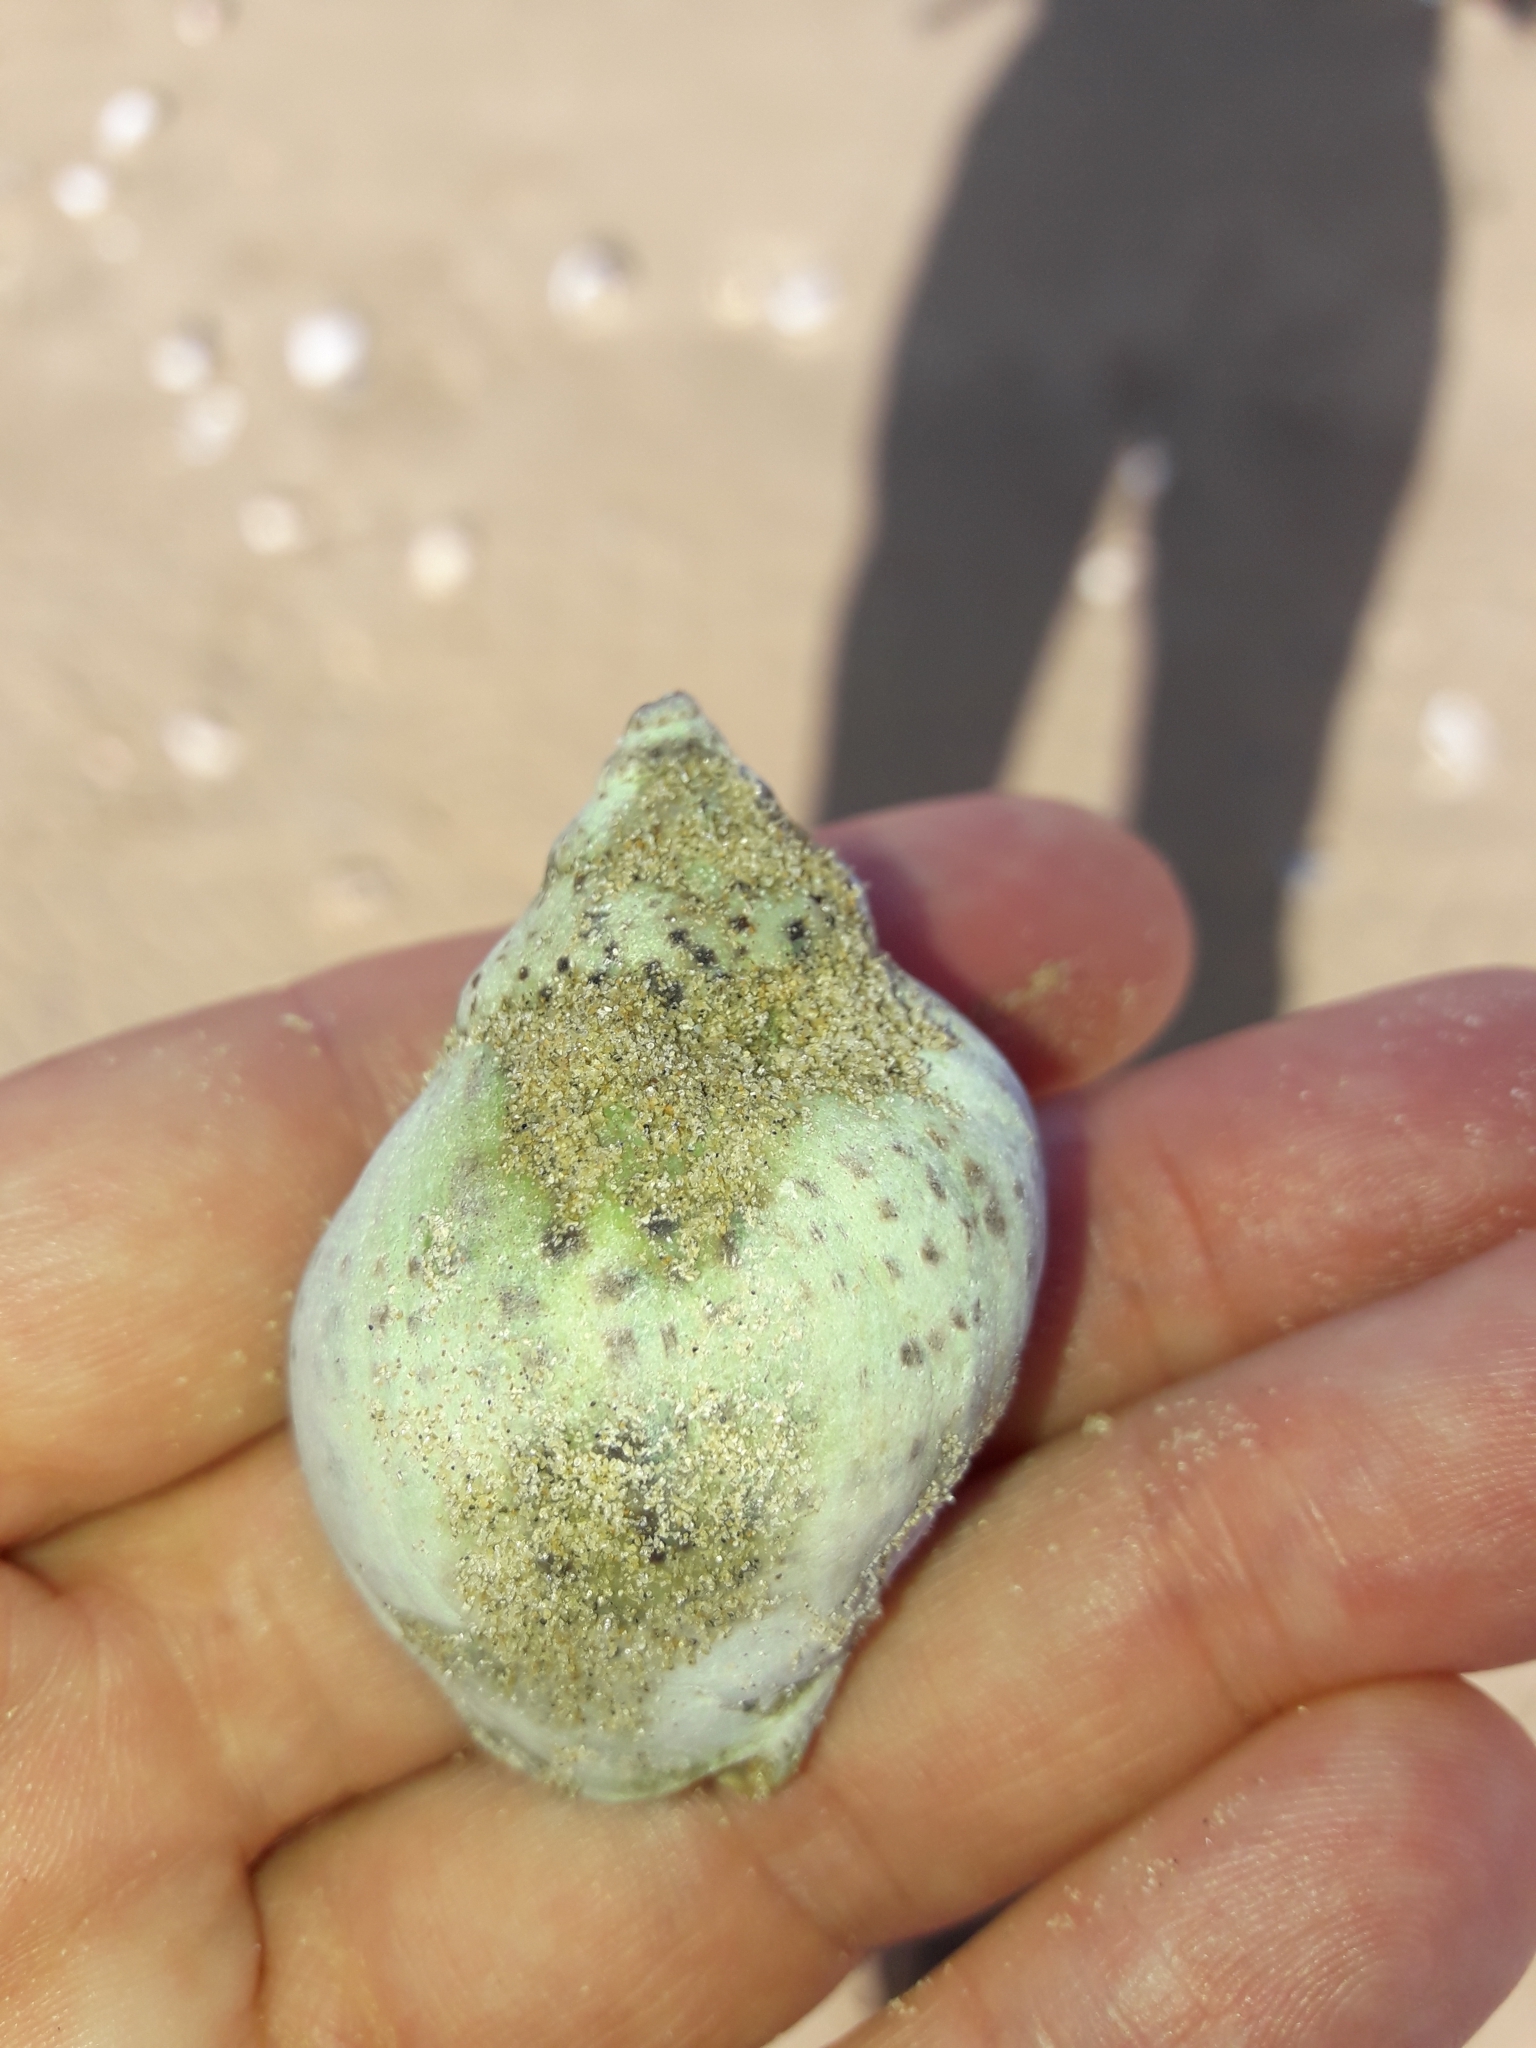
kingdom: Animalia
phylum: Mollusca
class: Gastropoda
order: Neogastropoda
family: Cominellidae
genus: Cominella
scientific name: Cominella adspersa
